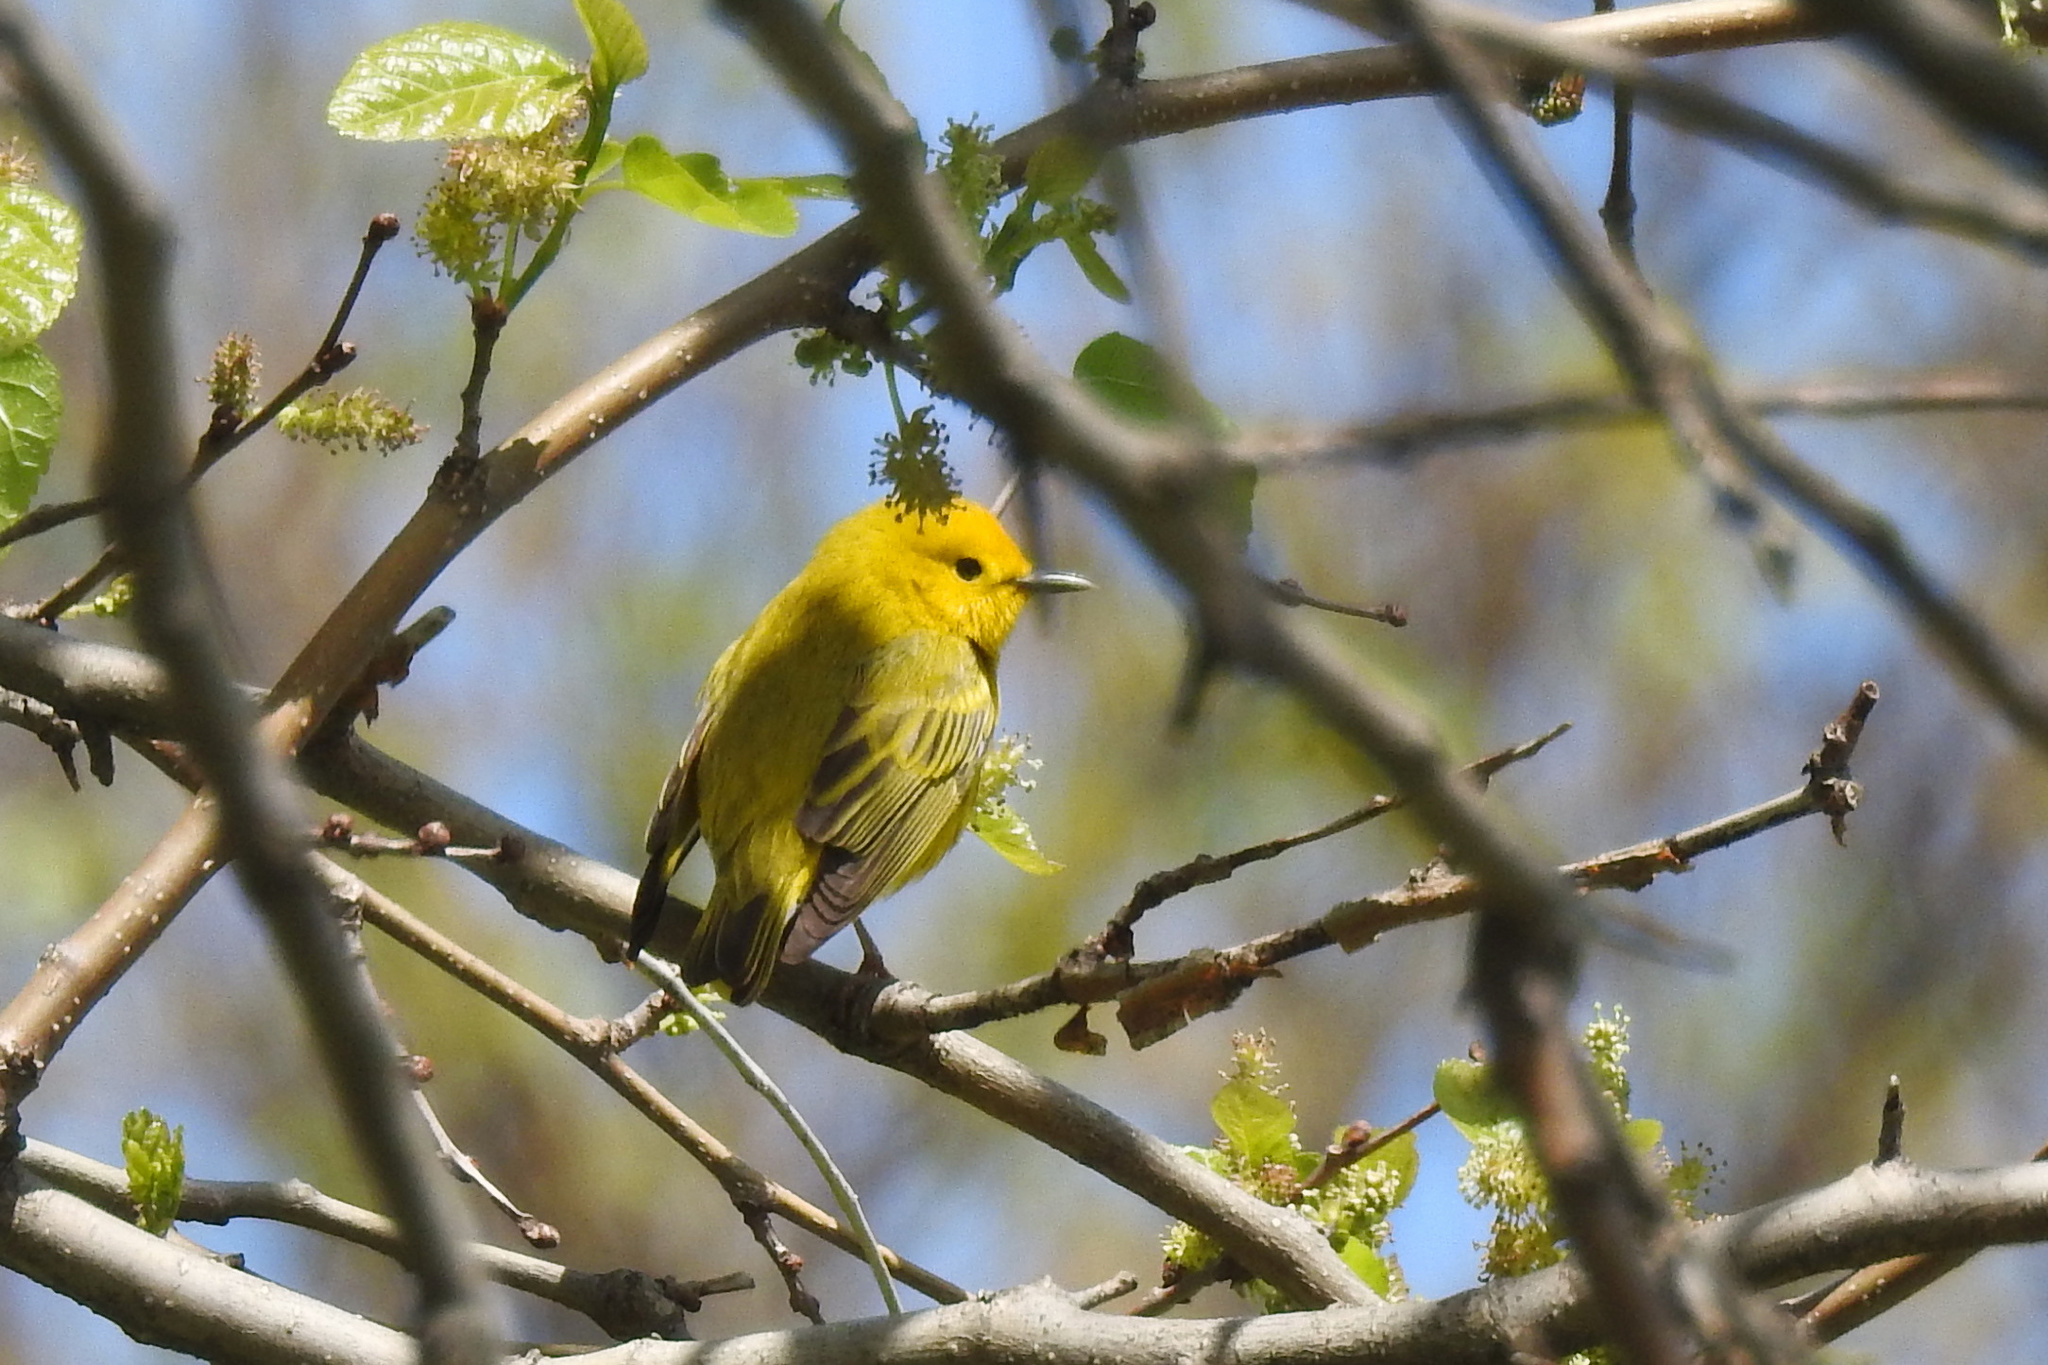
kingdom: Animalia
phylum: Chordata
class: Aves
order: Passeriformes
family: Parulidae
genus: Setophaga
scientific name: Setophaga petechia
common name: Yellow warbler
